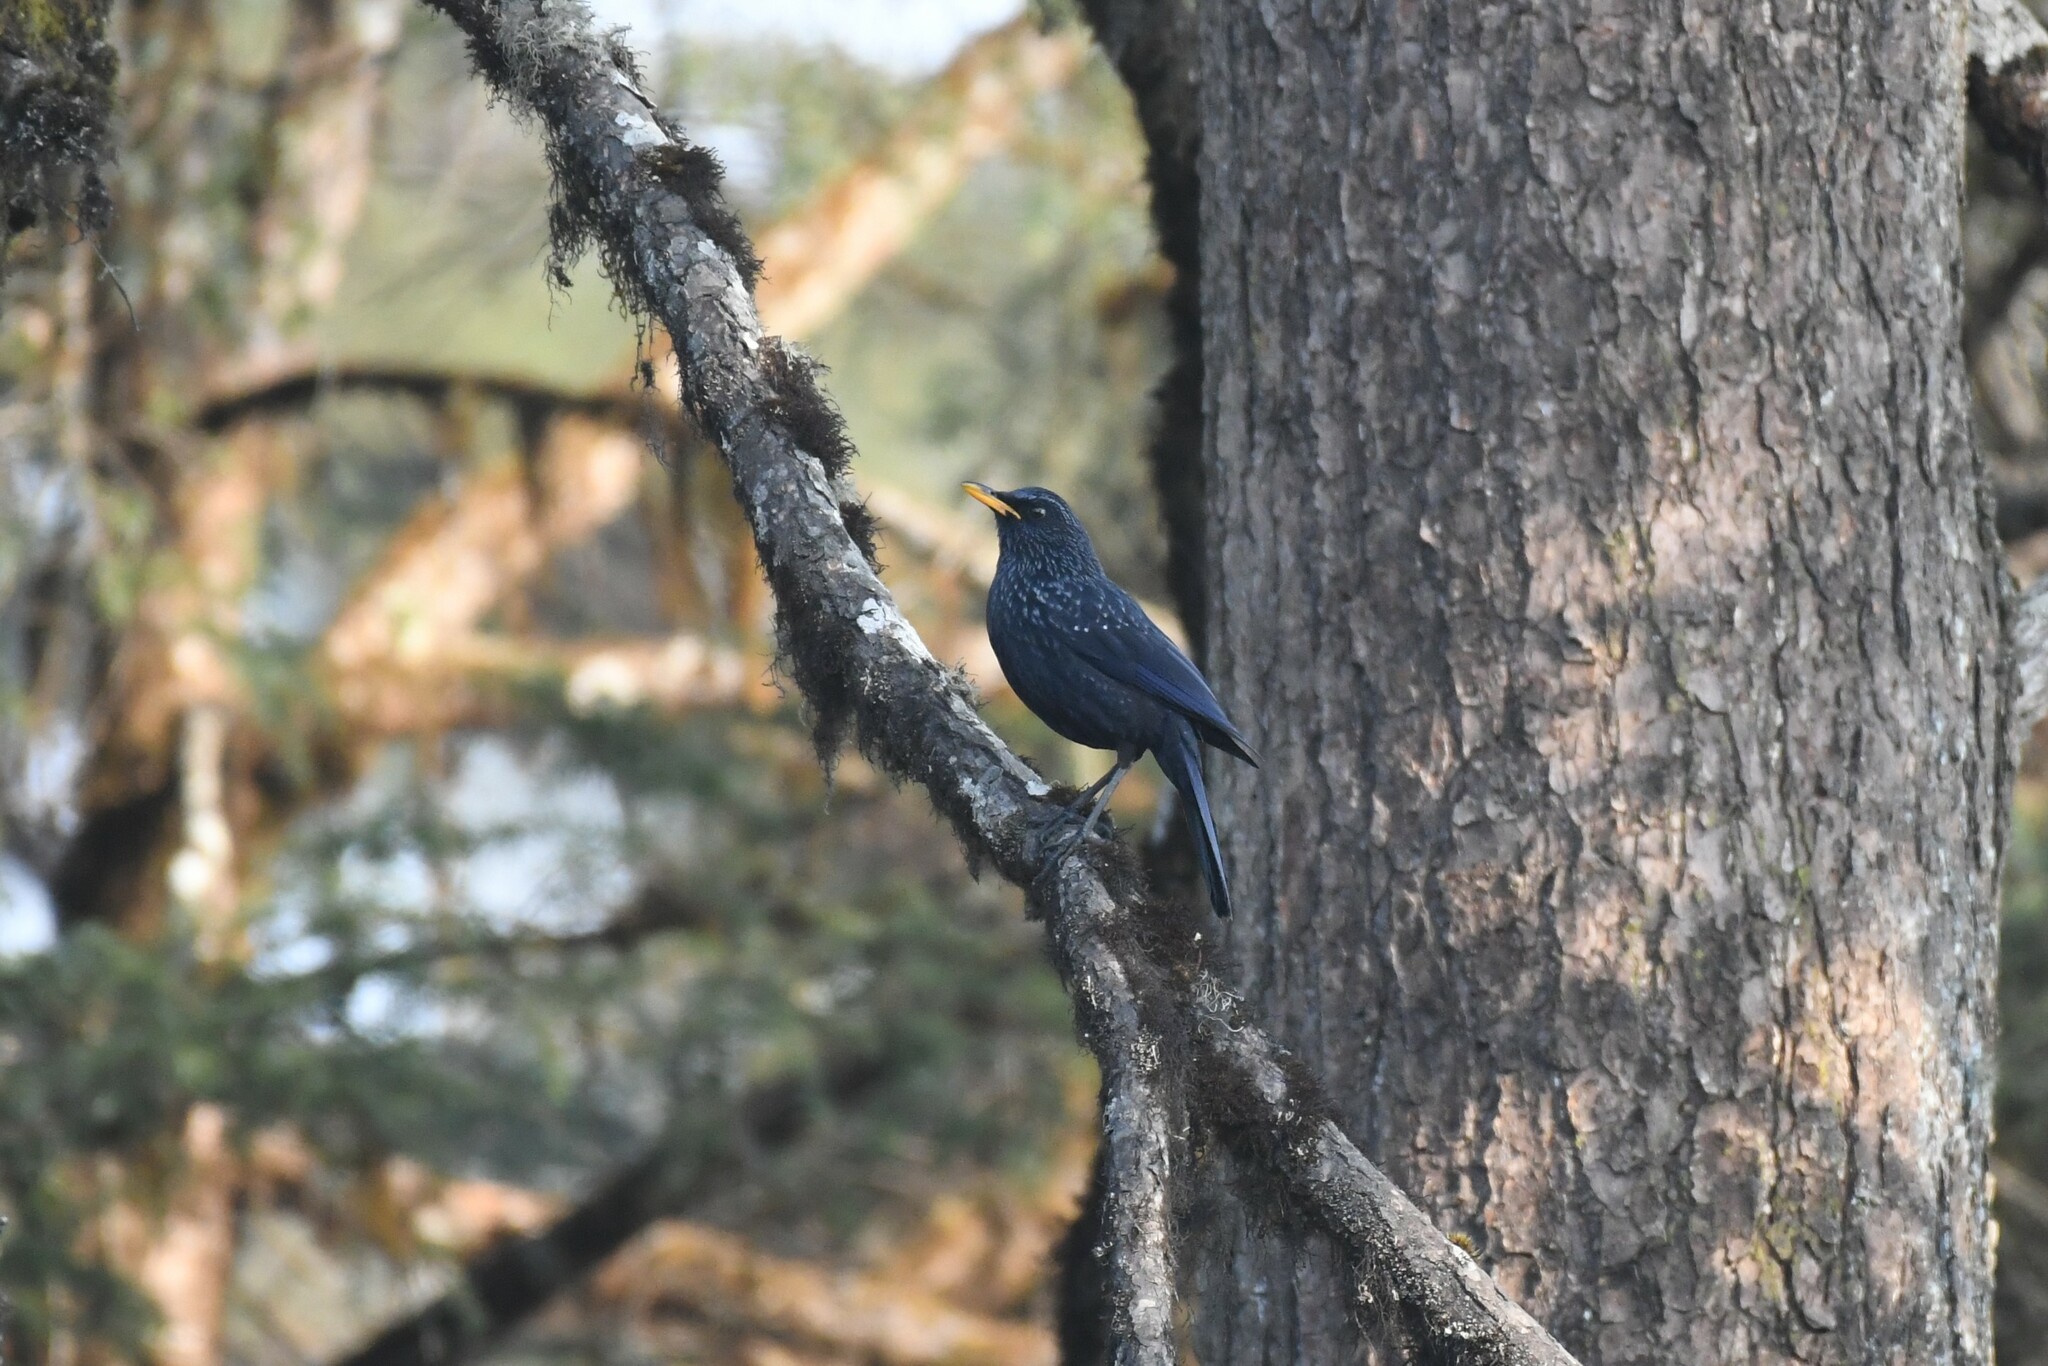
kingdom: Animalia
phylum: Chordata
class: Aves
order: Passeriformes
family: Muscicapidae
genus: Myophonus
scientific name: Myophonus caeruleus
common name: Blue whistling-thrush
